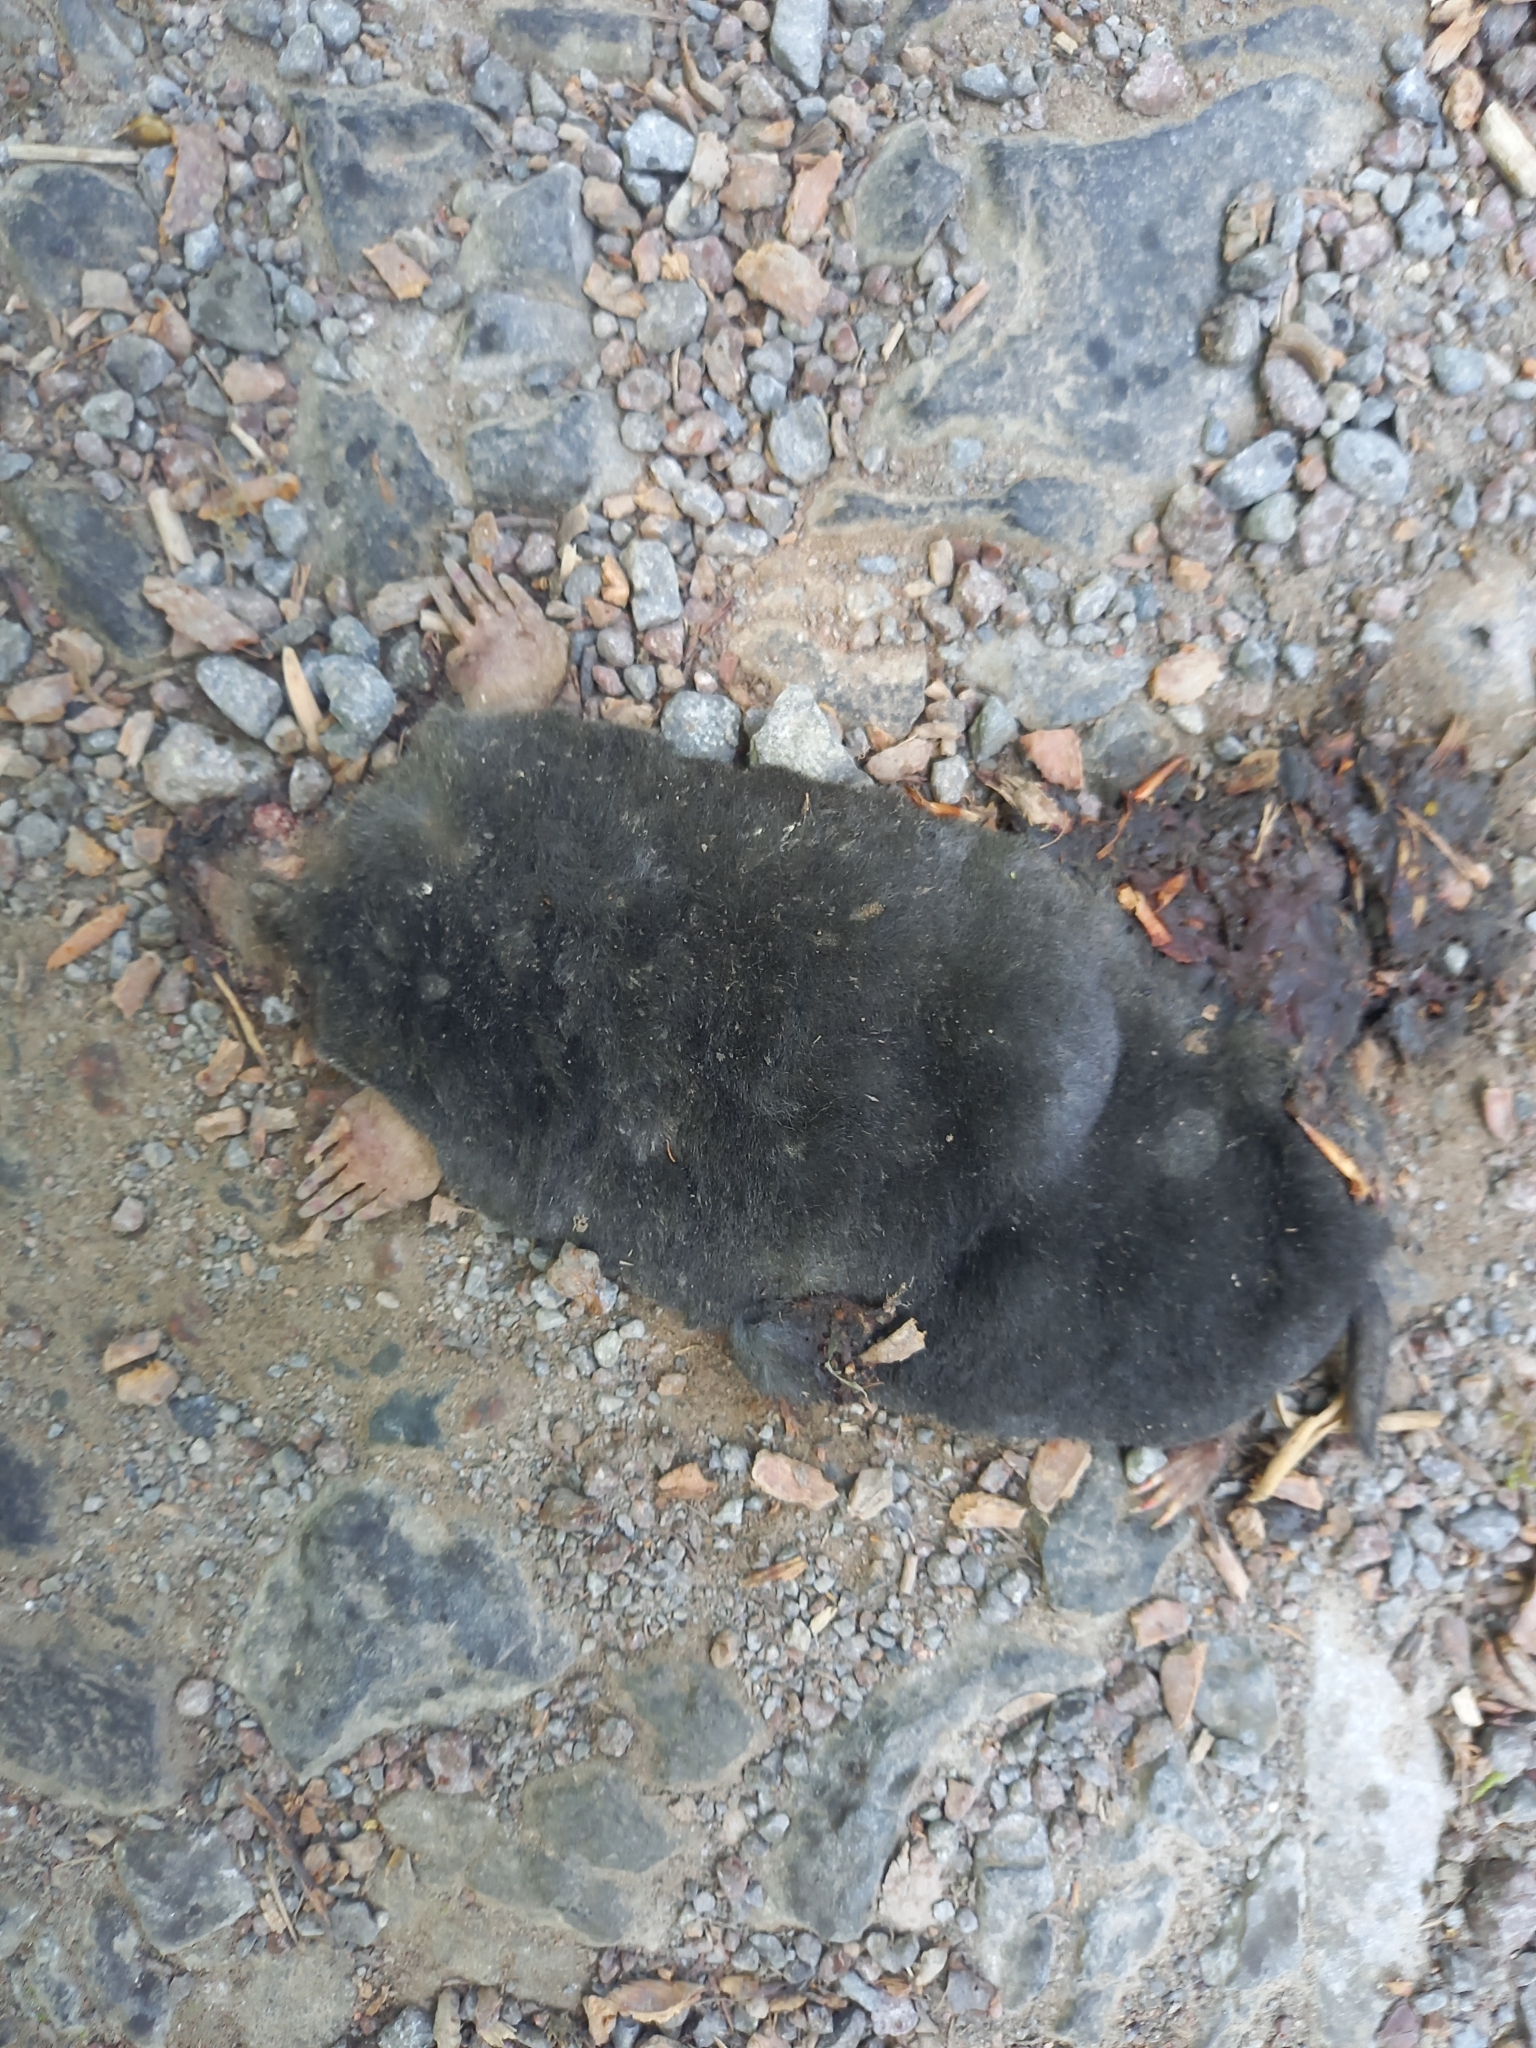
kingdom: Animalia
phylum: Chordata
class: Mammalia
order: Soricomorpha
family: Talpidae
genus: Talpa
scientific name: Talpa europaea
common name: European mole
